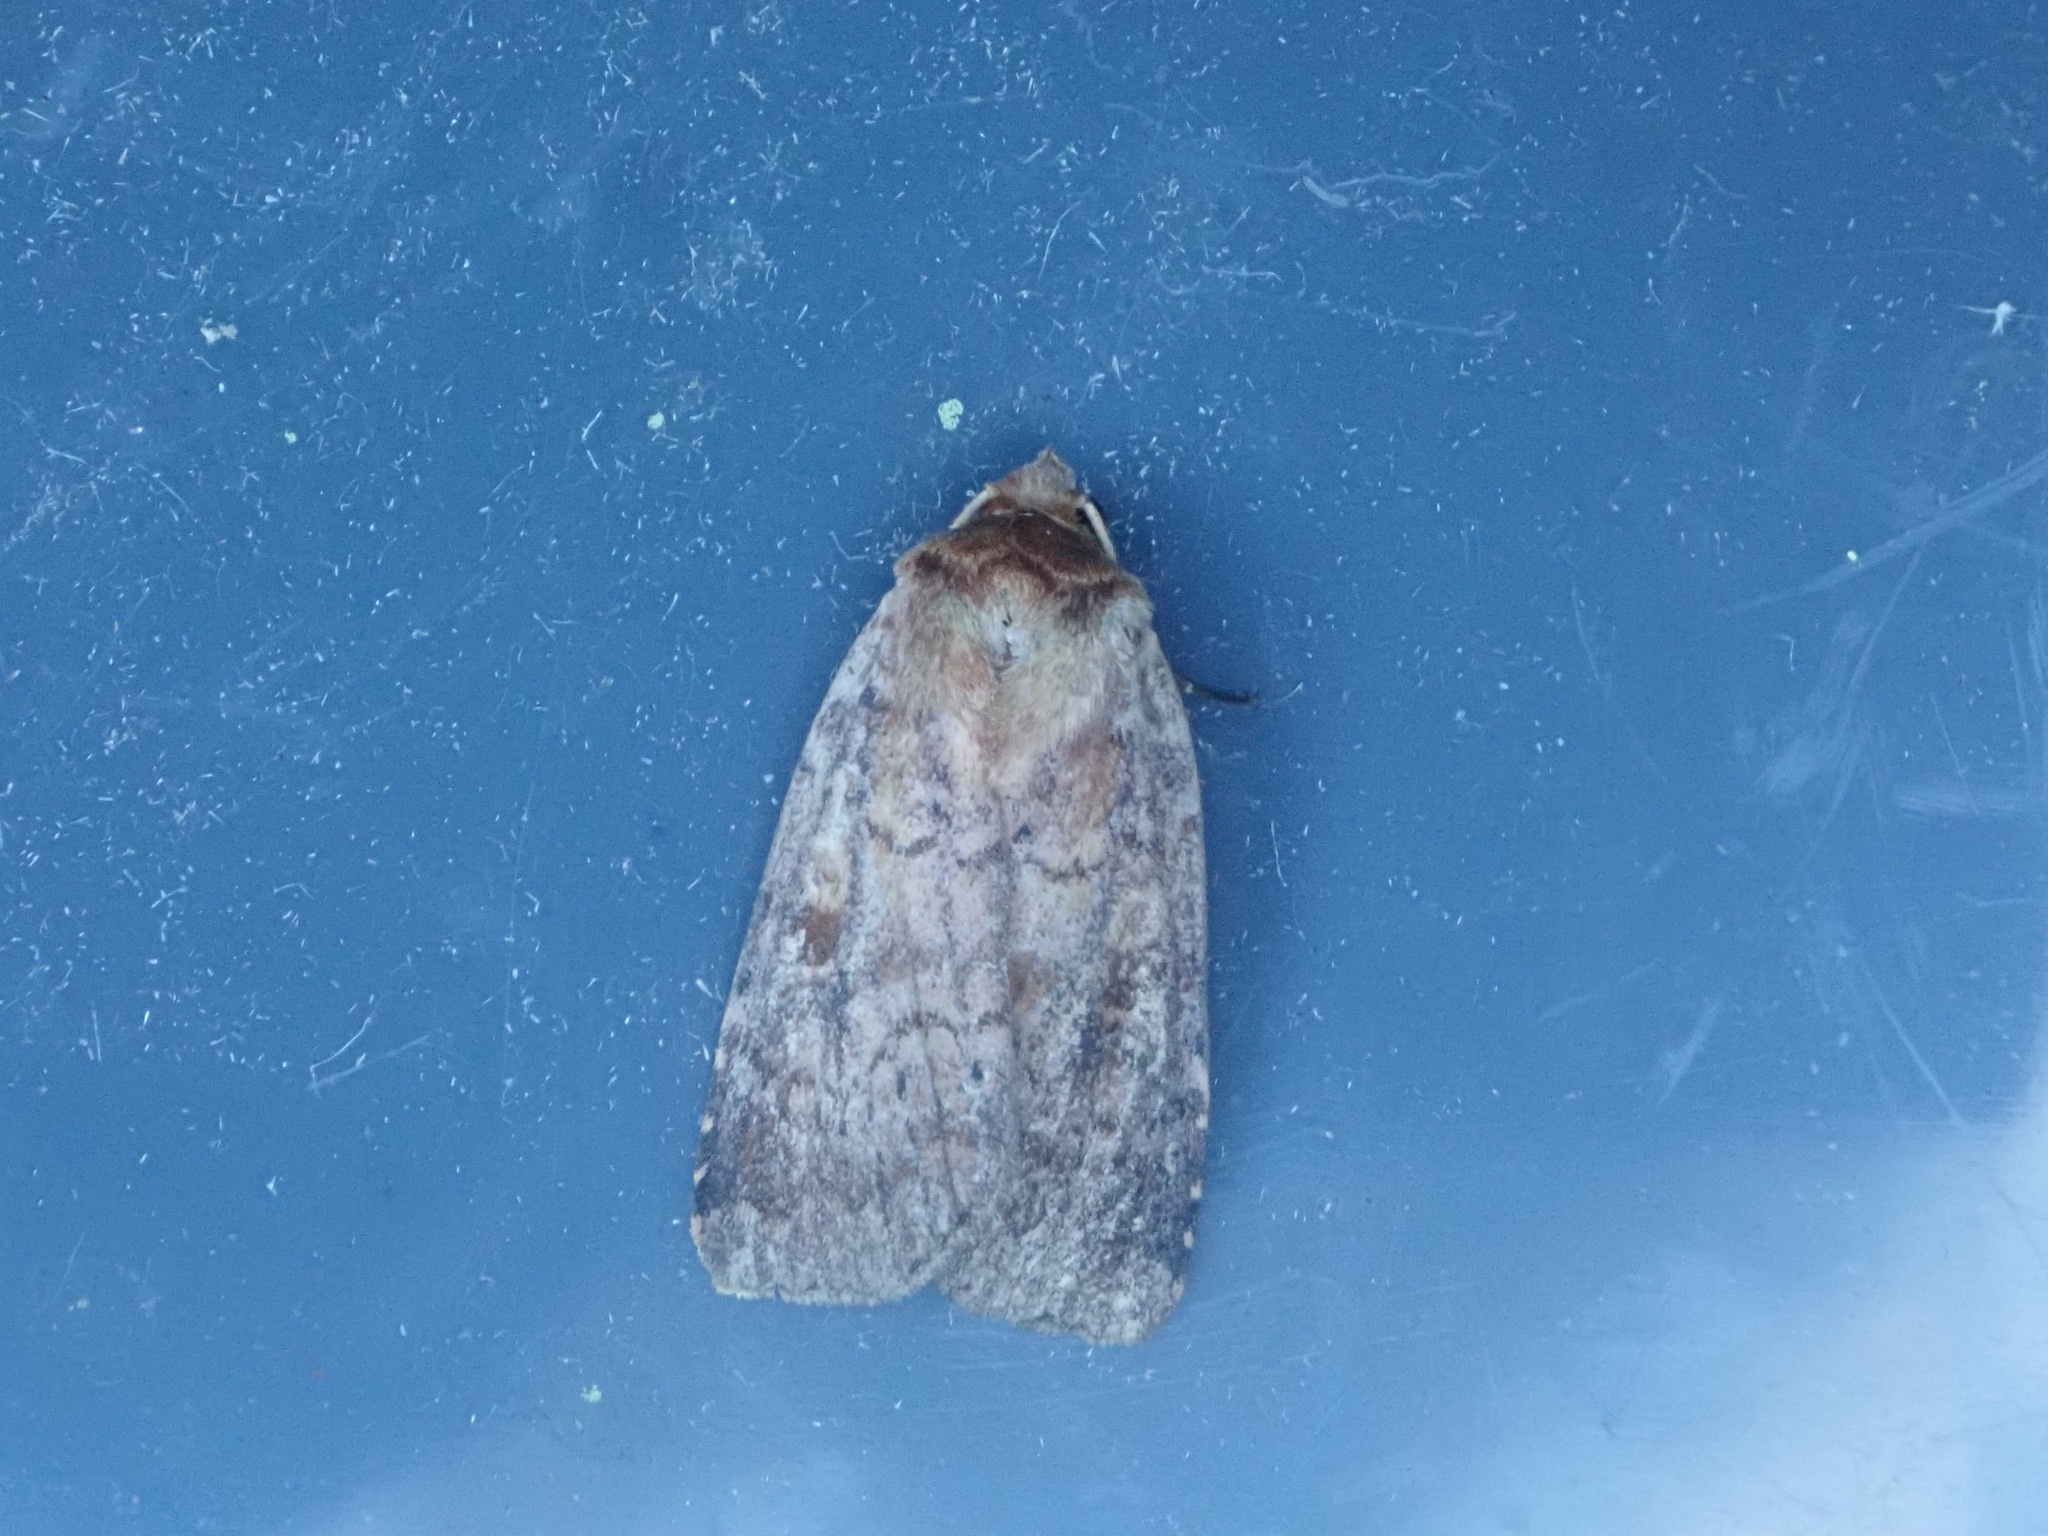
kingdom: Animalia
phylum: Arthropoda
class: Insecta
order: Lepidoptera
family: Noctuidae
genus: Lycophotia
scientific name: Lycophotia phyllophora
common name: Lycophotia moth
